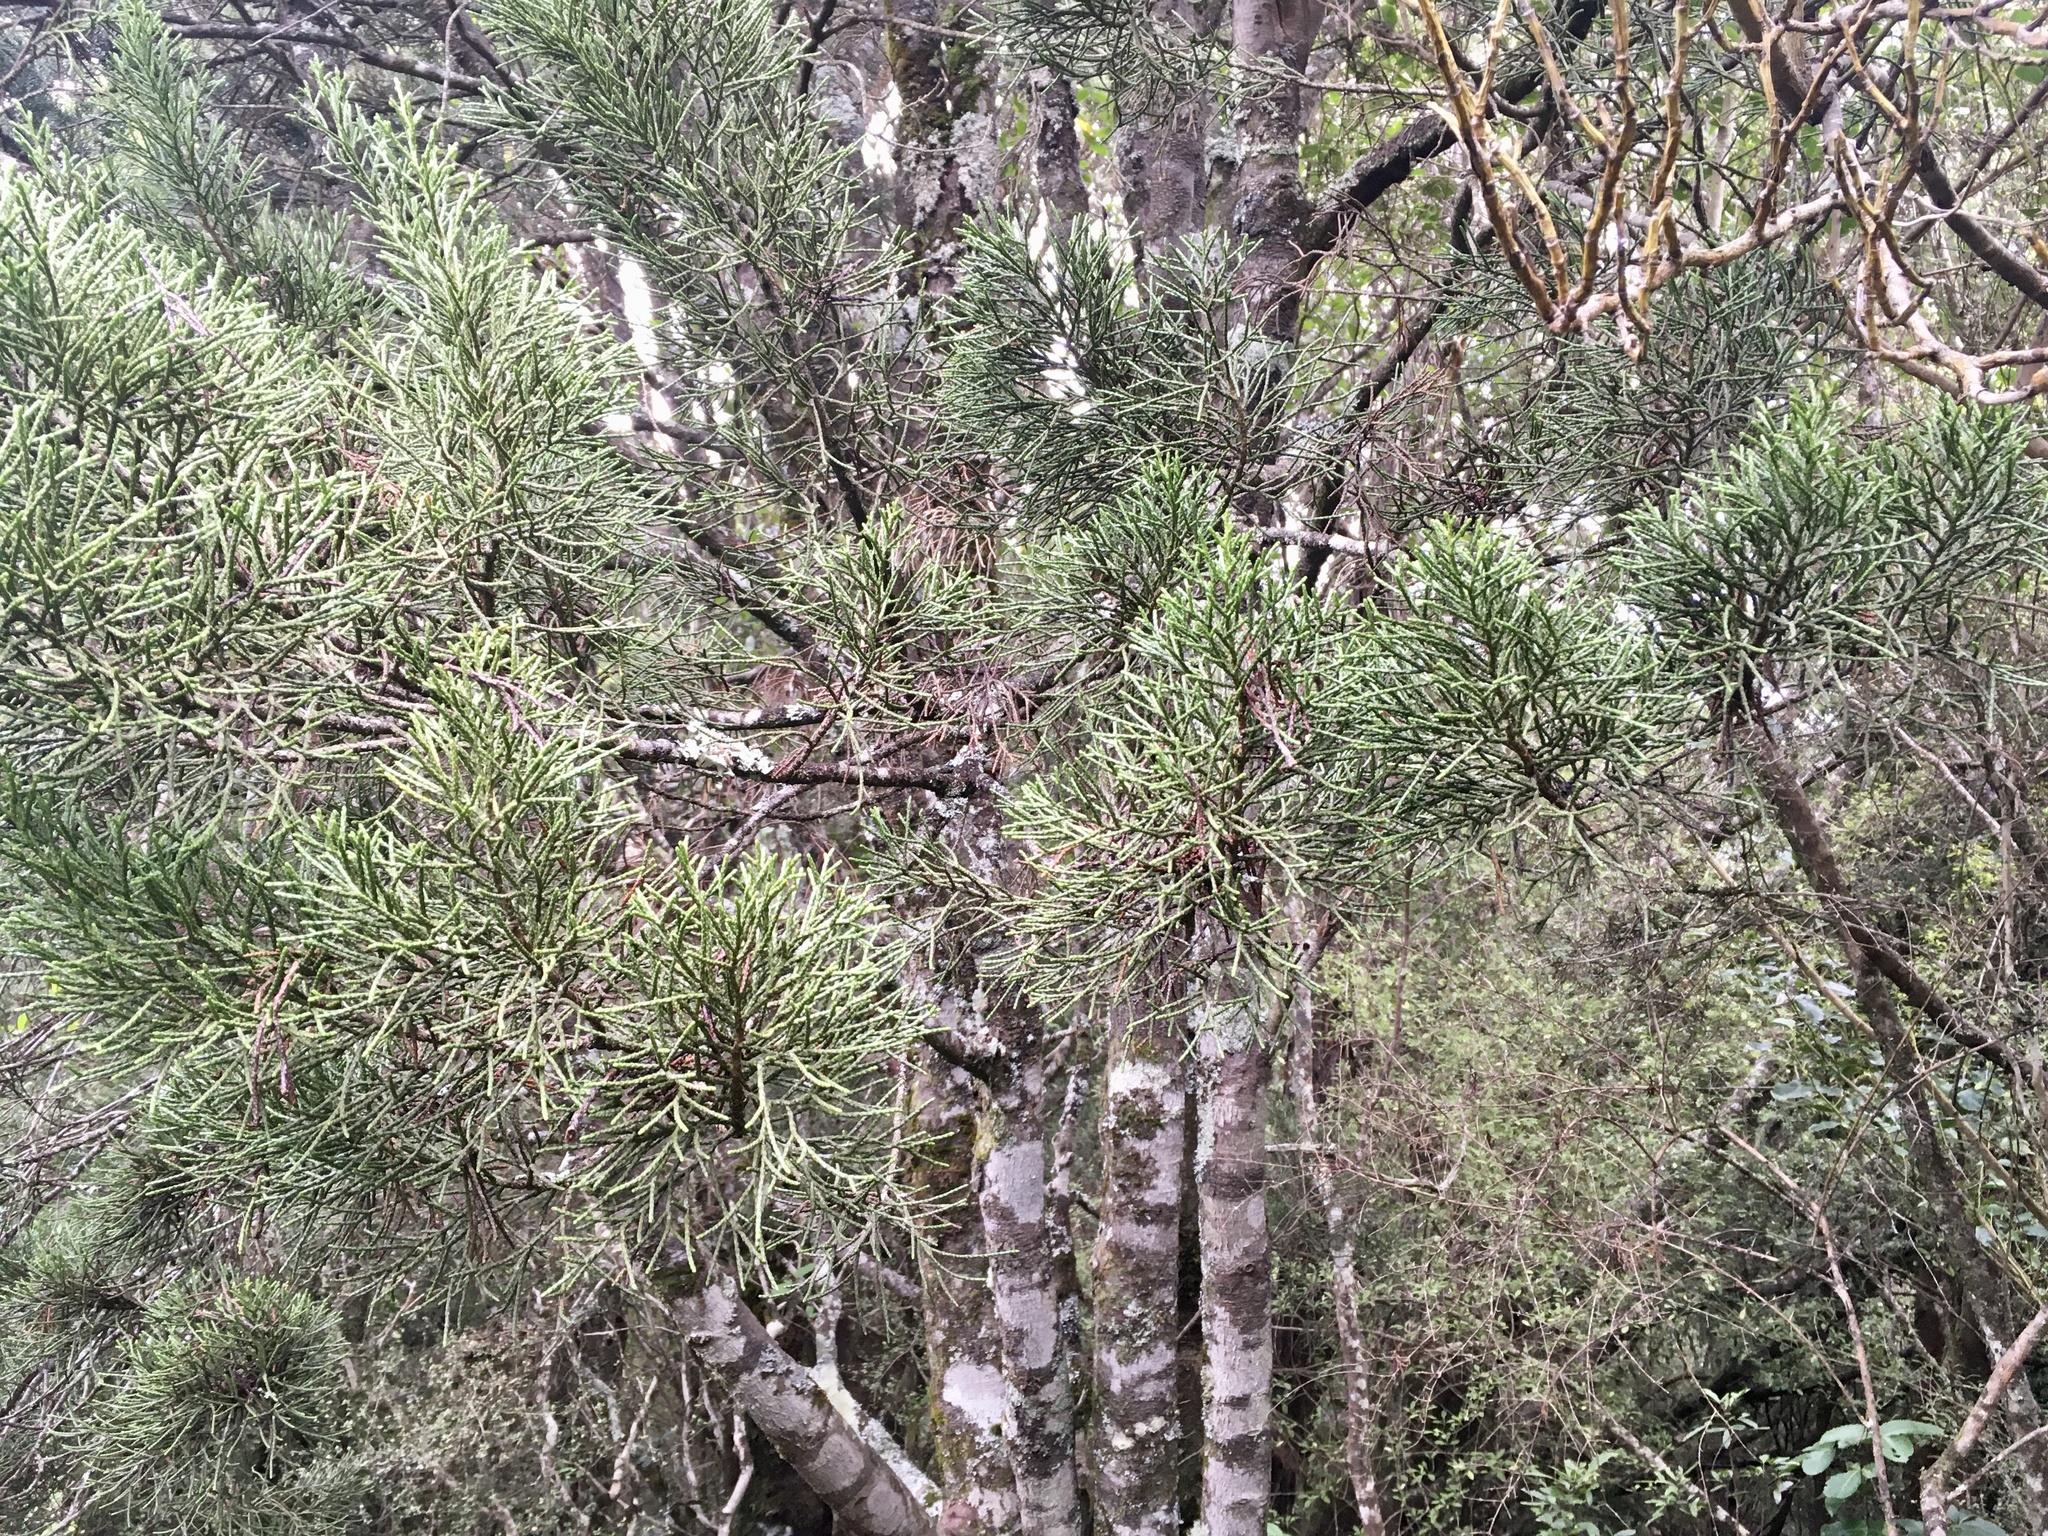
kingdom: Plantae
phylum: Tracheophyta
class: Pinopsida
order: Pinales
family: Podocarpaceae
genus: Halocarpus
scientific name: Halocarpus biformis
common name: Alpine tarwood
